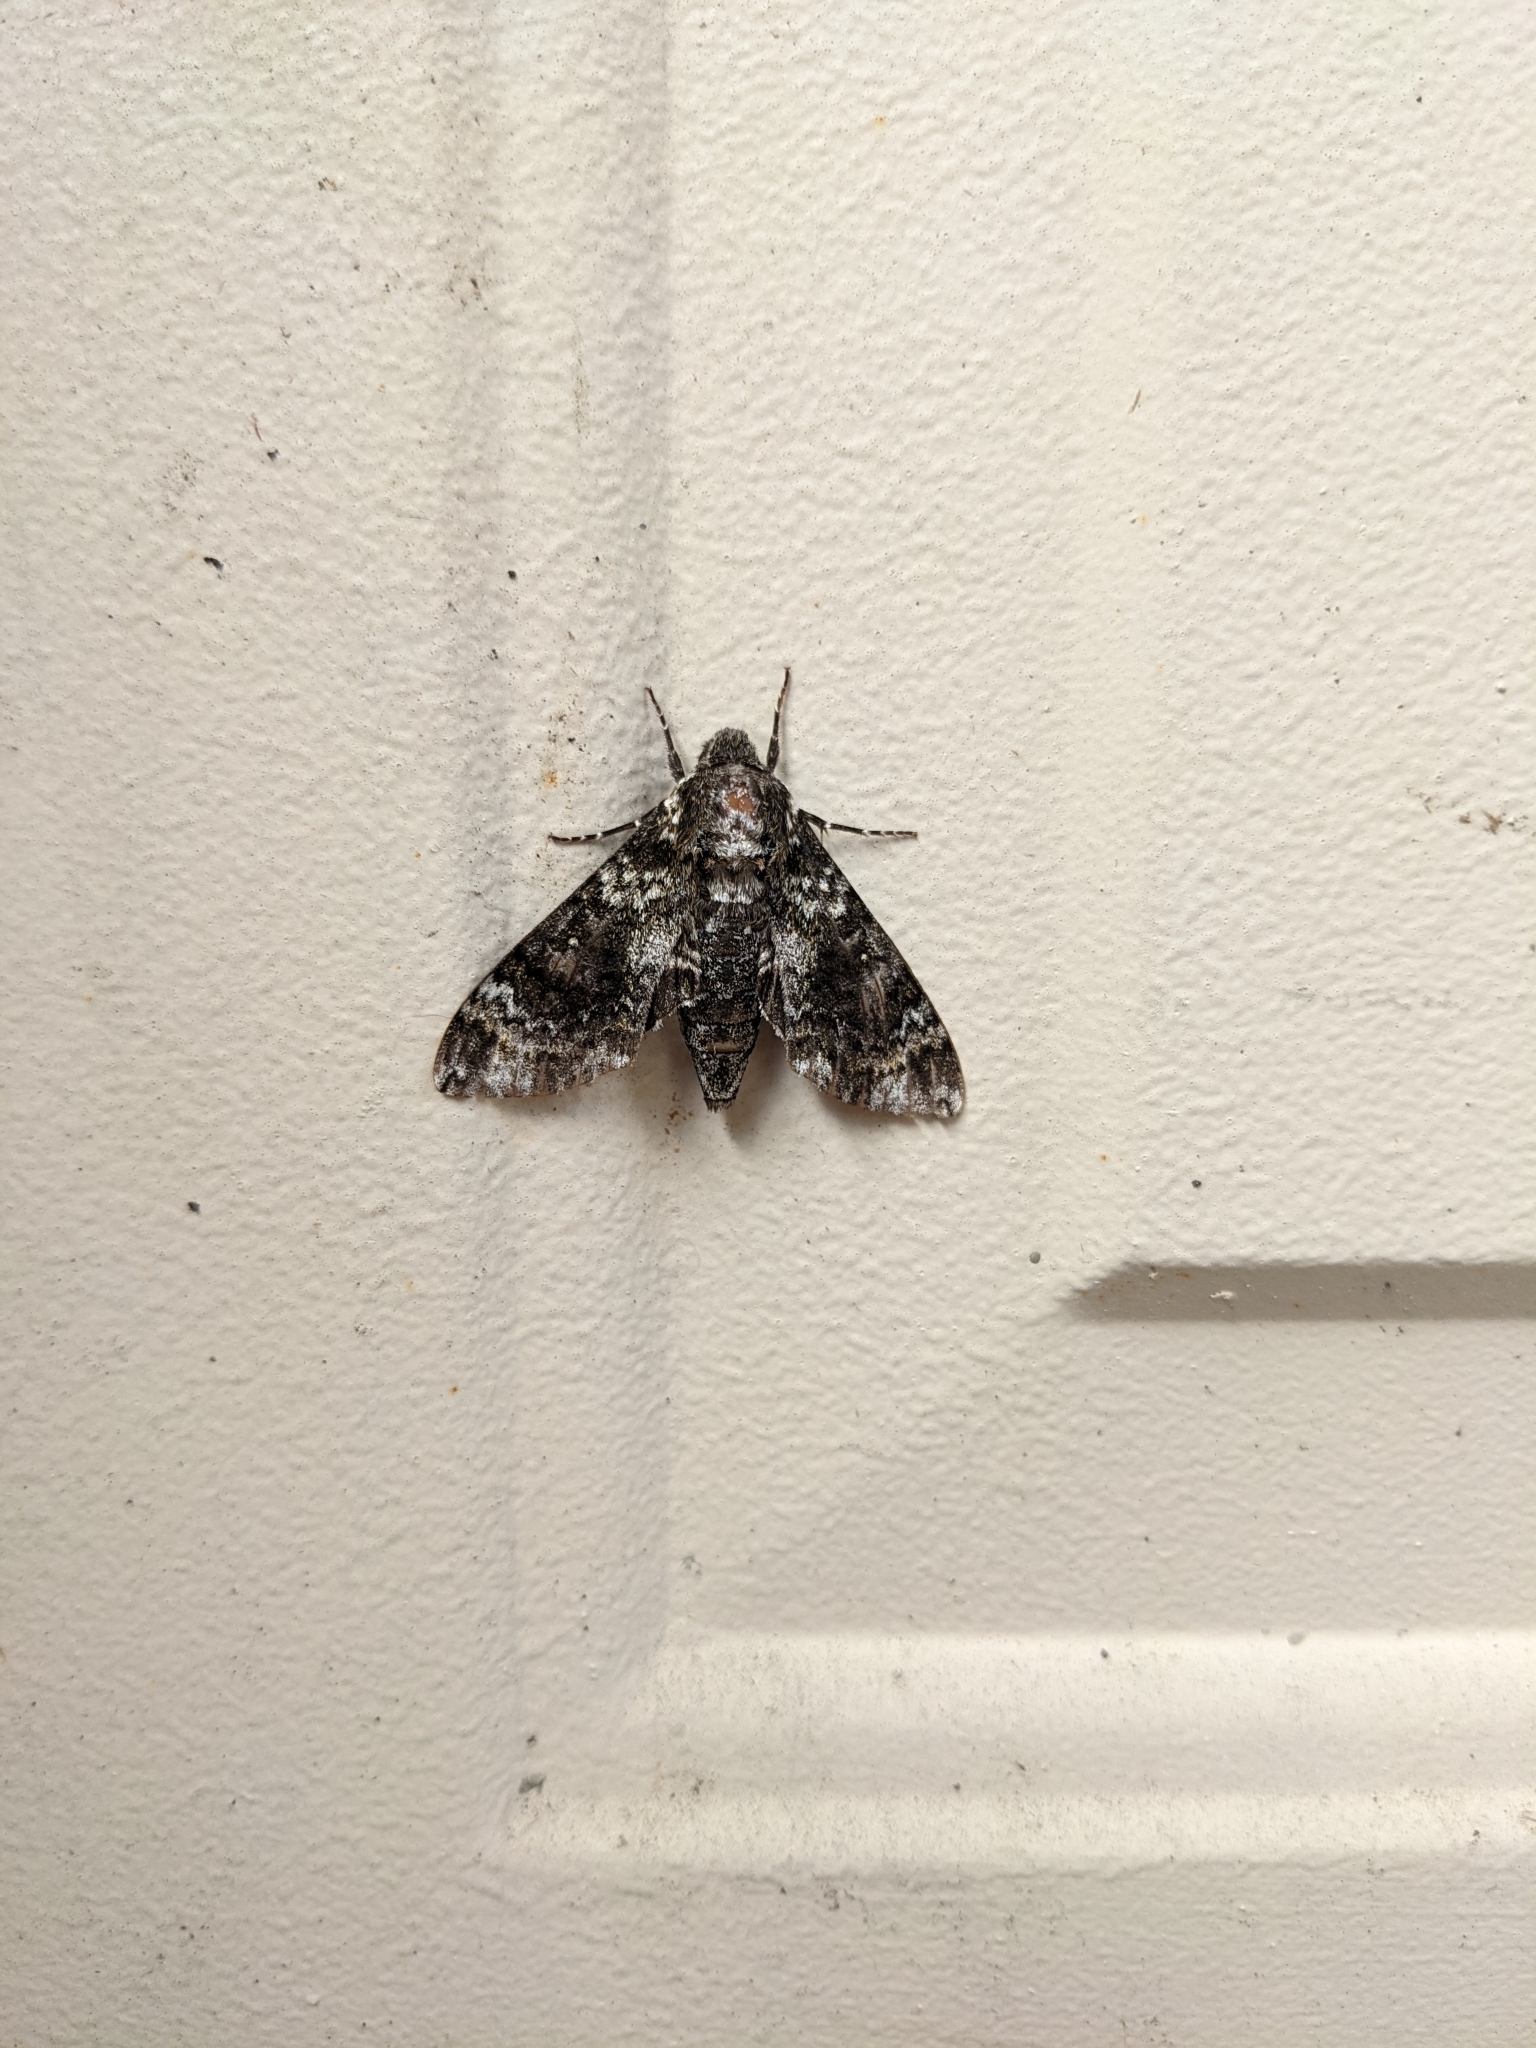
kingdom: Animalia
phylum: Arthropoda
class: Insecta
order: Lepidoptera
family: Sphingidae
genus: Dolba
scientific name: Dolba hyloeus
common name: Pawpaw sphinx
